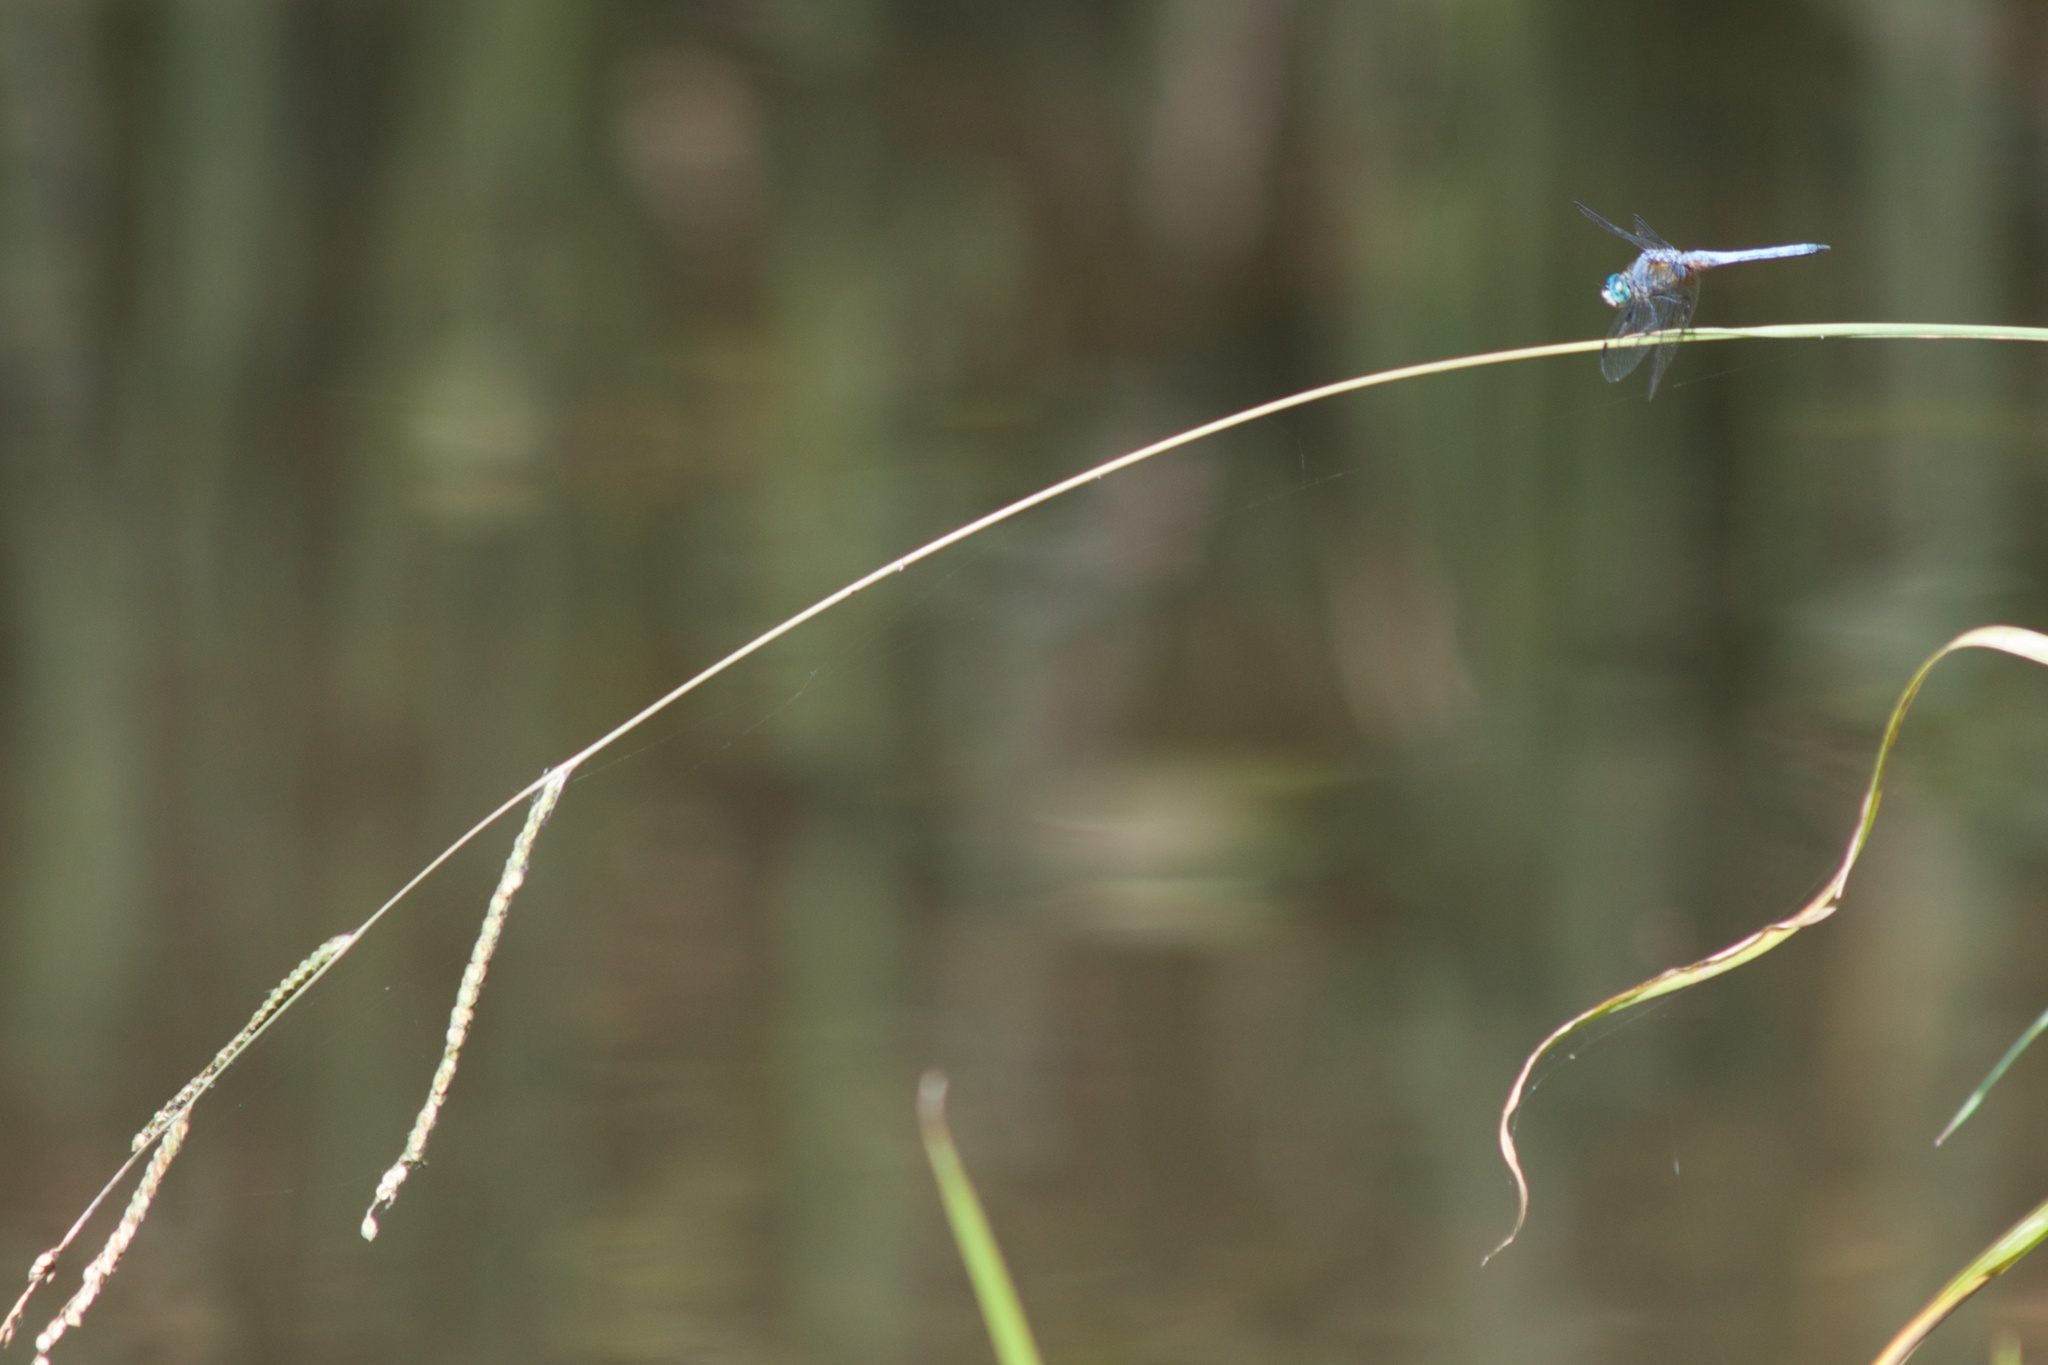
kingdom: Animalia
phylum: Arthropoda
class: Insecta
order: Odonata
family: Libellulidae
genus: Pachydiplax
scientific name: Pachydiplax longipennis
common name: Blue dasher
